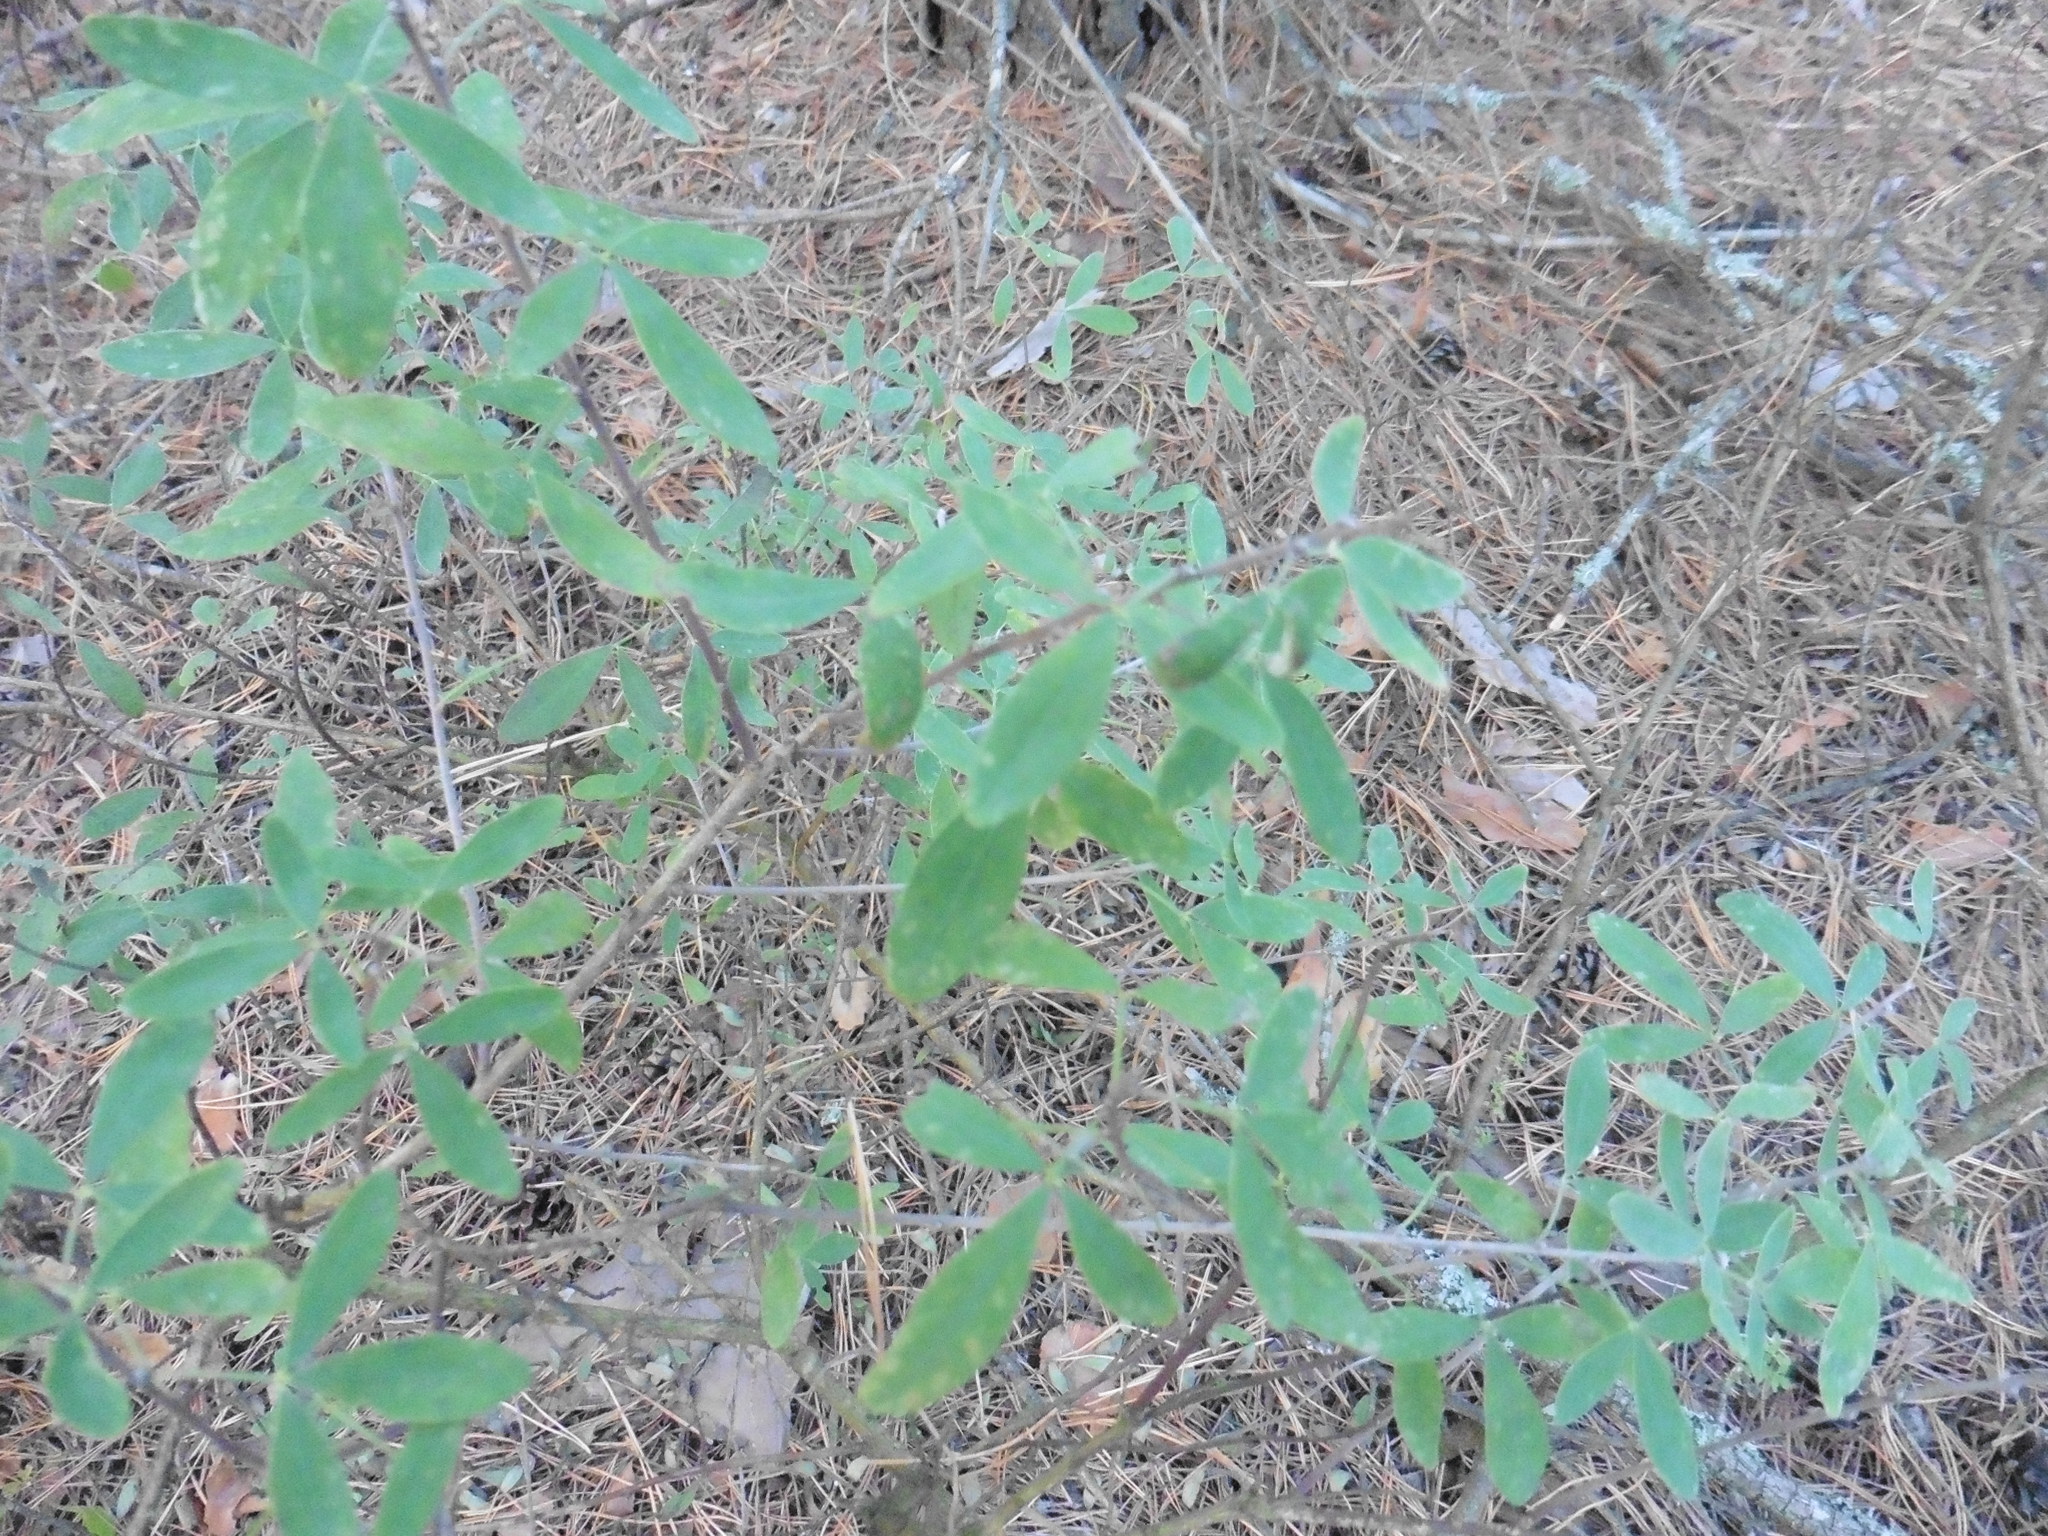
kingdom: Plantae
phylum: Tracheophyta
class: Magnoliopsida
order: Fabales
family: Fabaceae
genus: Chamaecytisus
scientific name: Chamaecytisus ruthenicus
